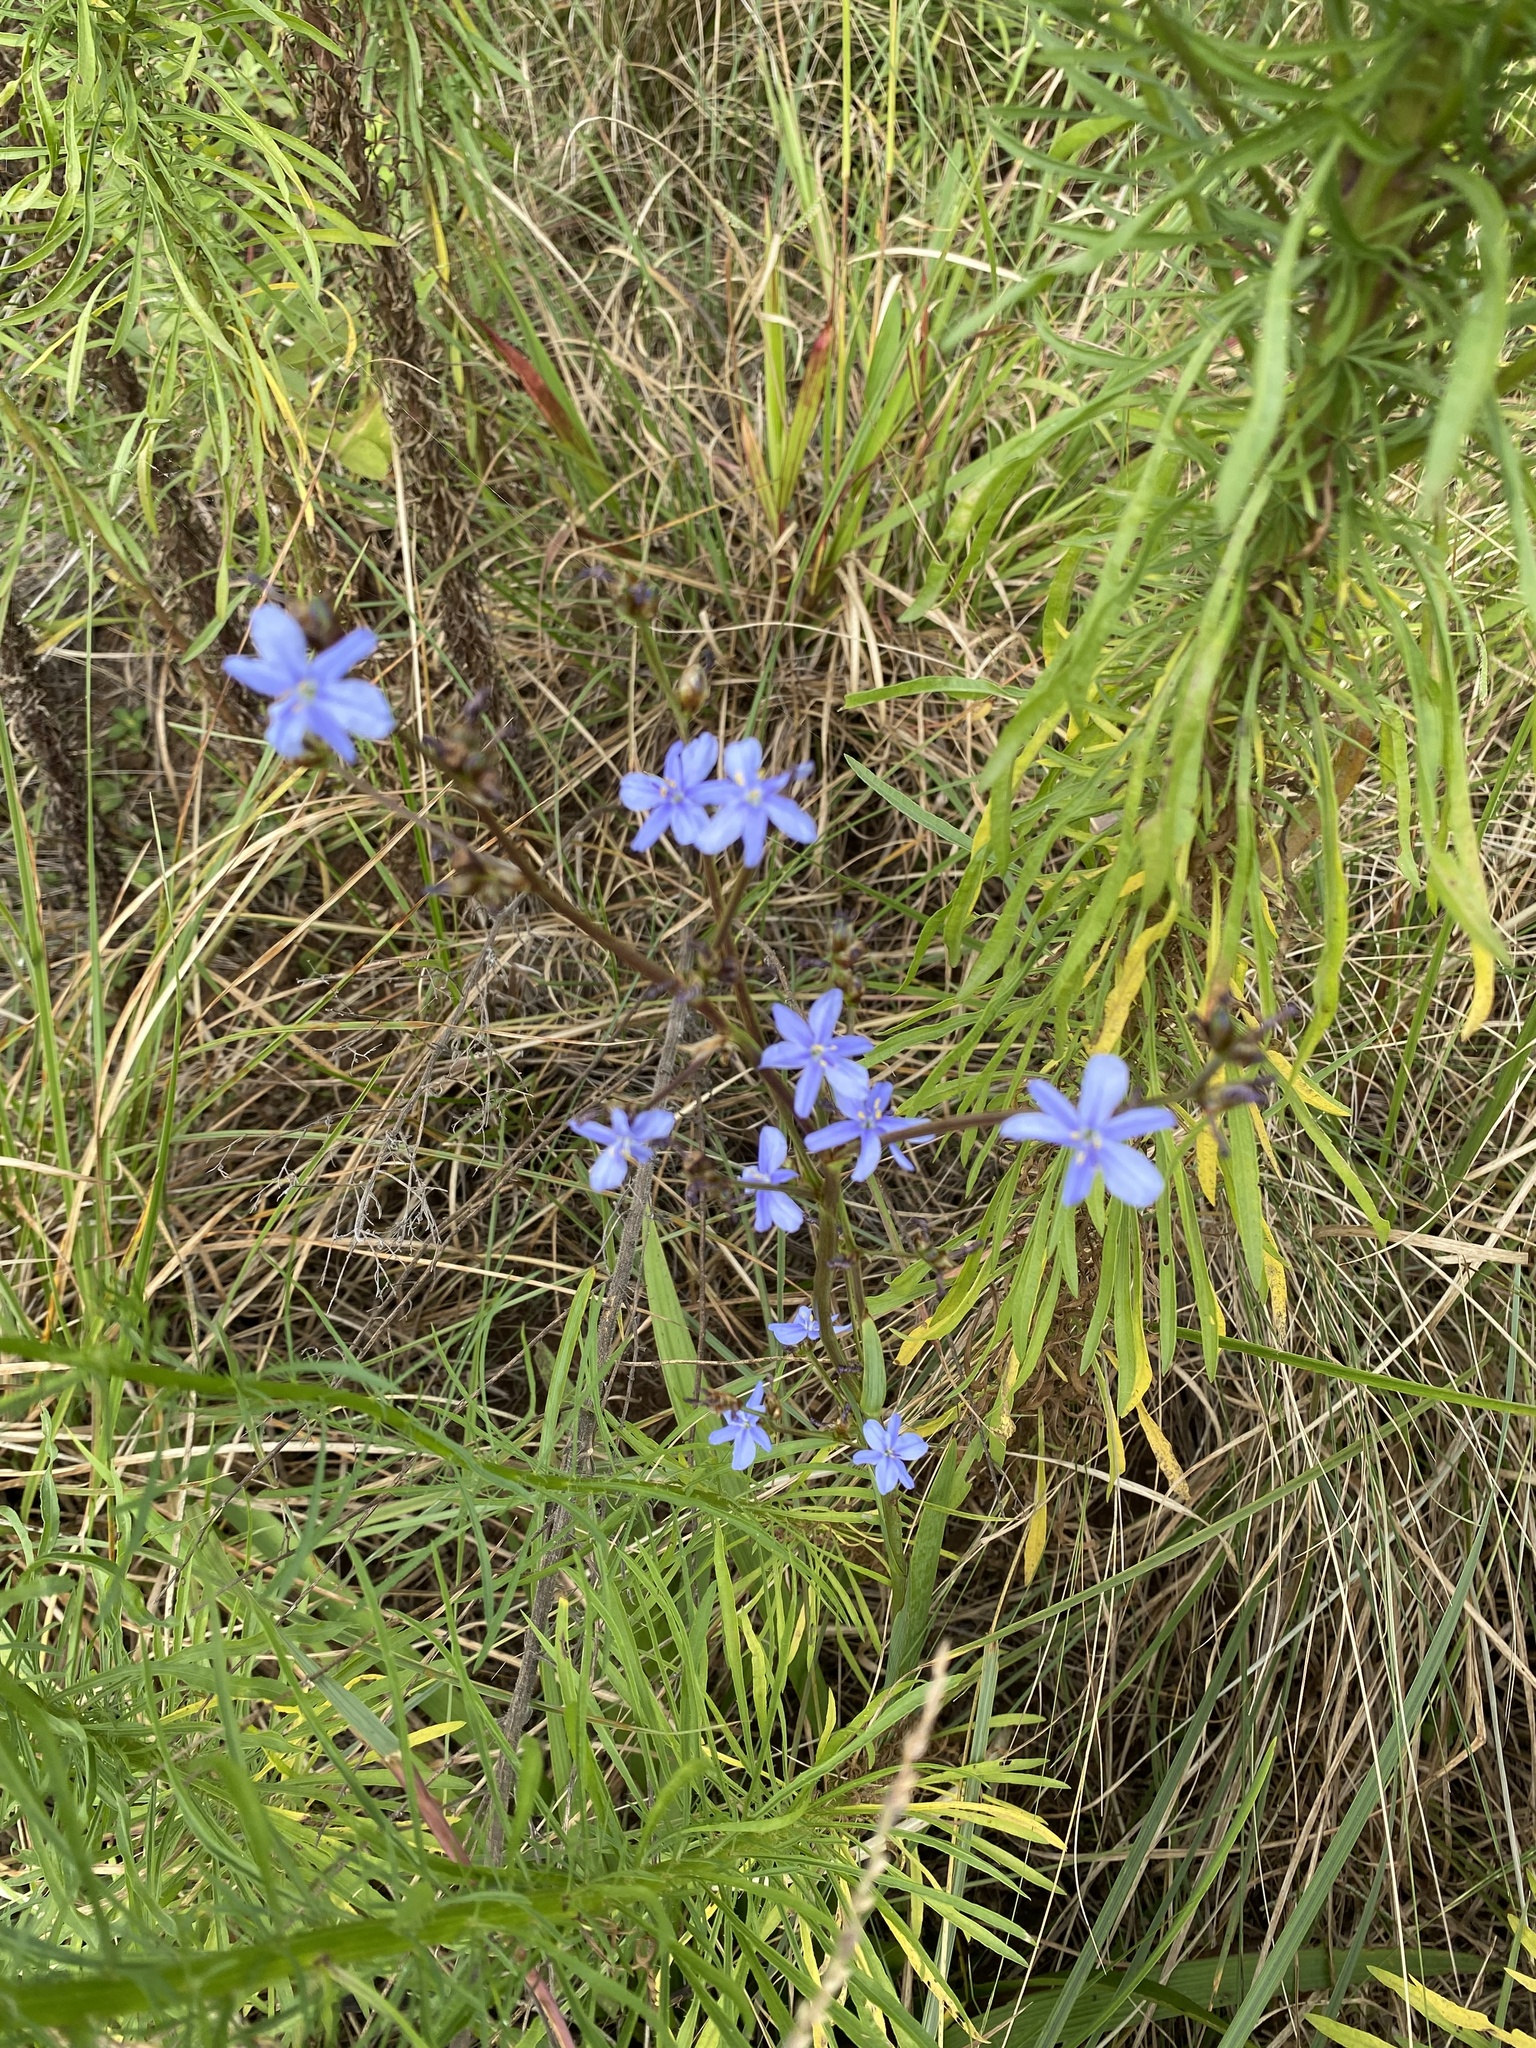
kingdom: Plantae
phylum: Tracheophyta
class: Liliopsida
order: Asparagales
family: Iridaceae
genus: Aristea
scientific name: Aristea ecklonii
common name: Blue corn-lily
